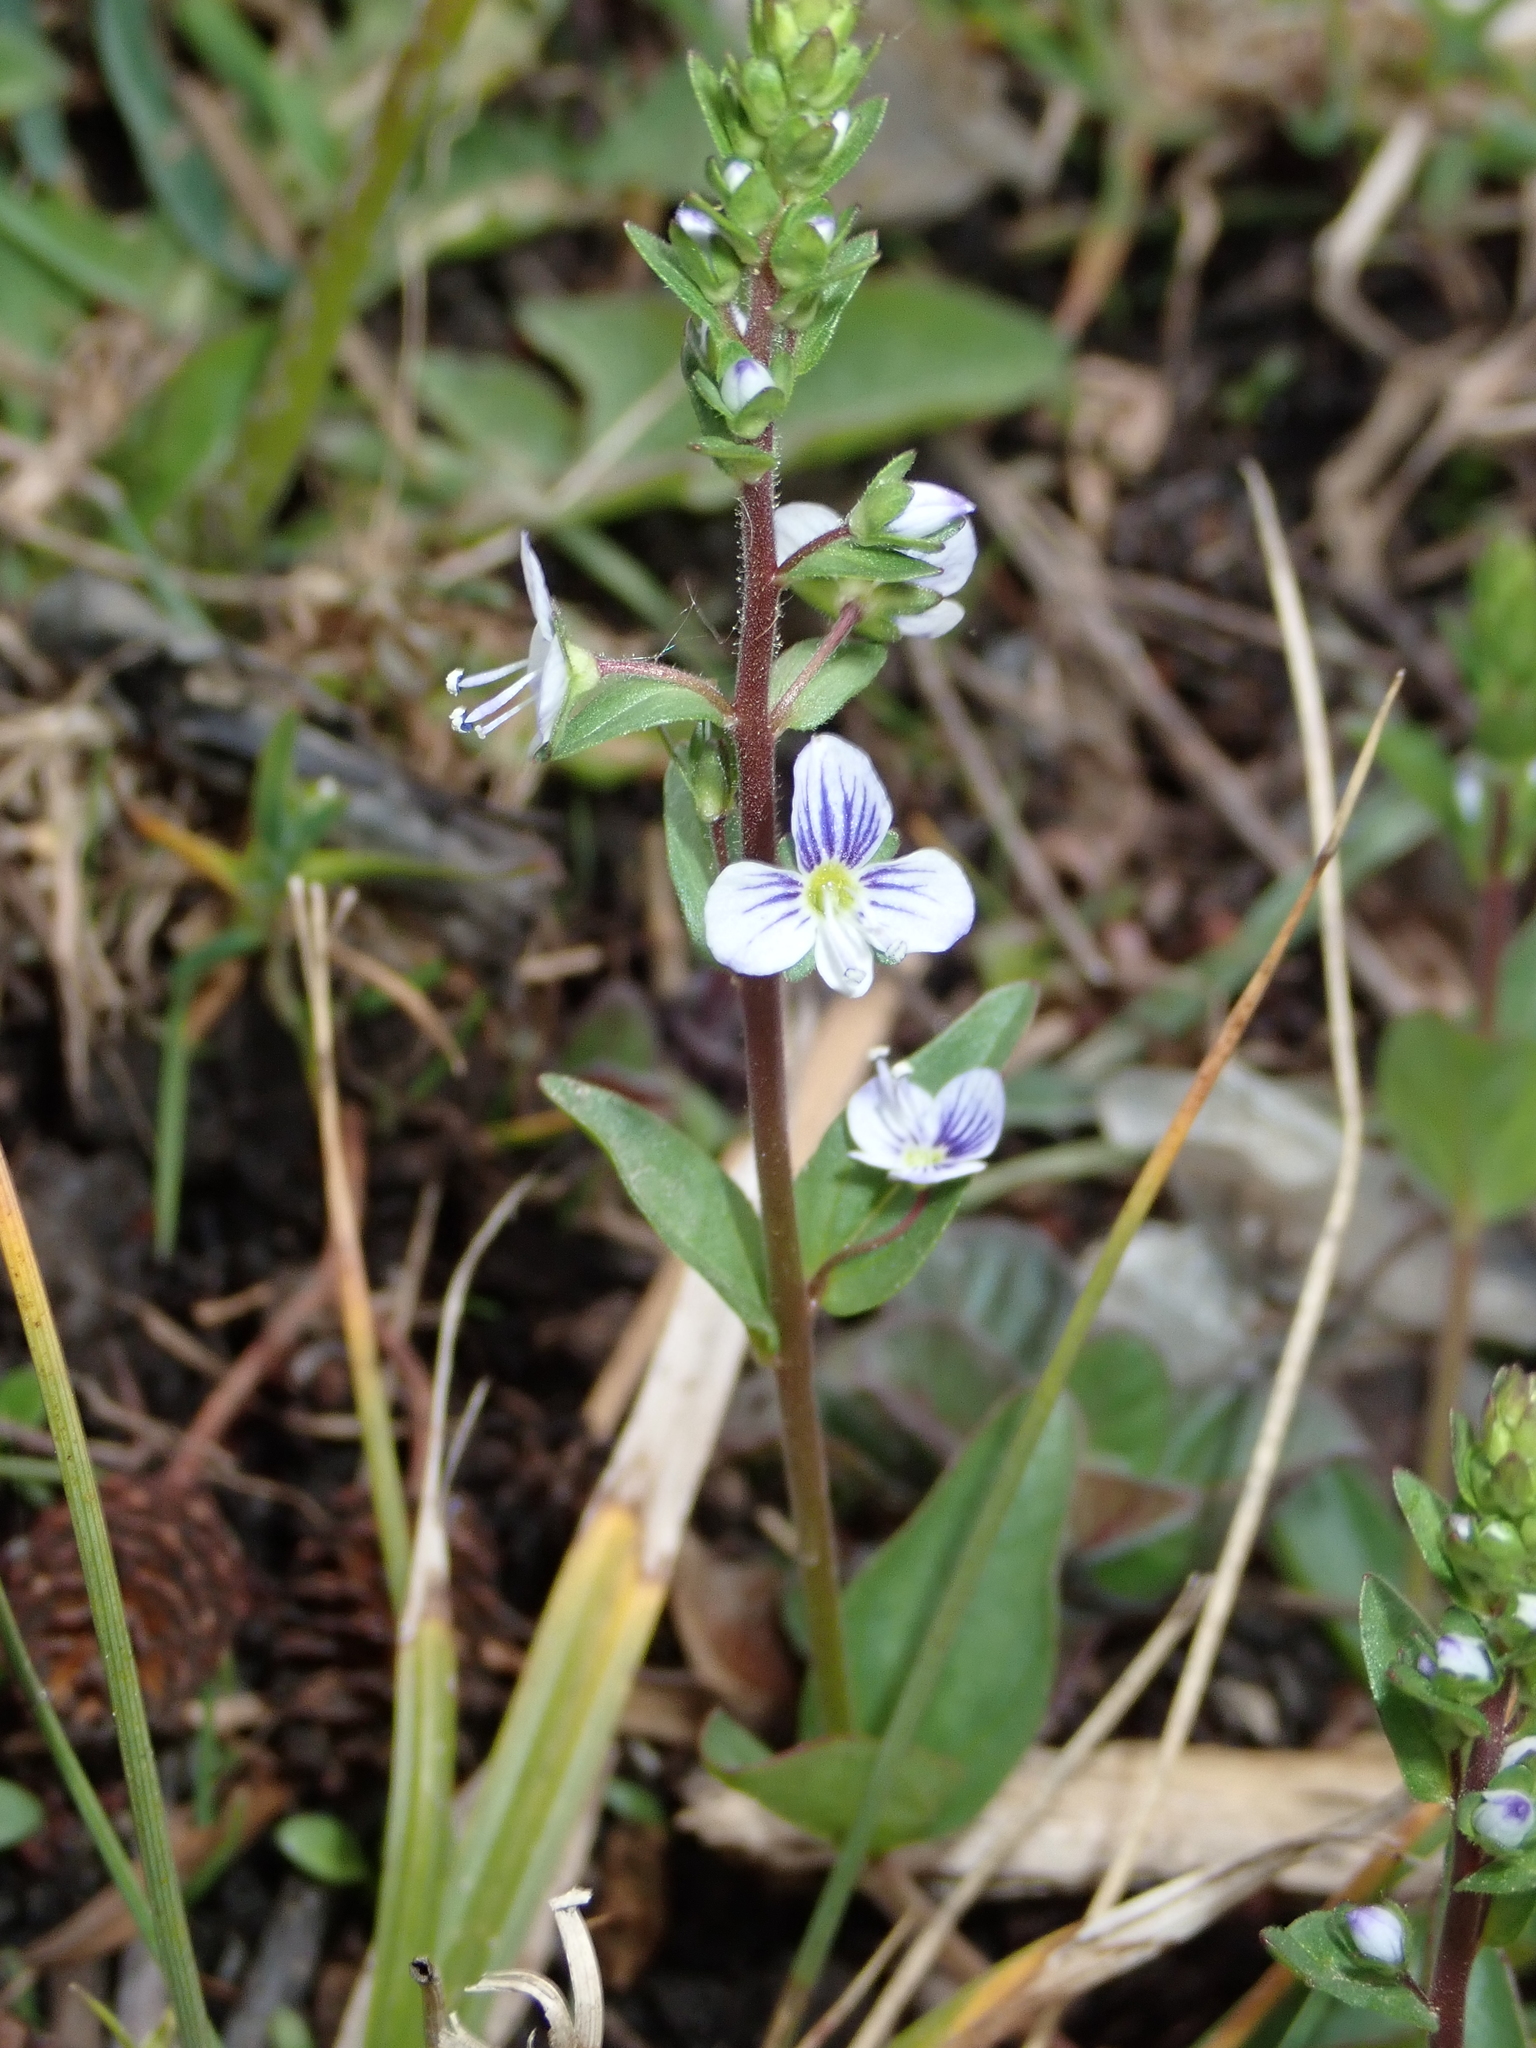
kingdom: Plantae
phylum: Tracheophyta
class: Magnoliopsida
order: Lamiales
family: Plantaginaceae
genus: Veronica
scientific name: Veronica serpyllifolia
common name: Thyme-leaved speedwell
